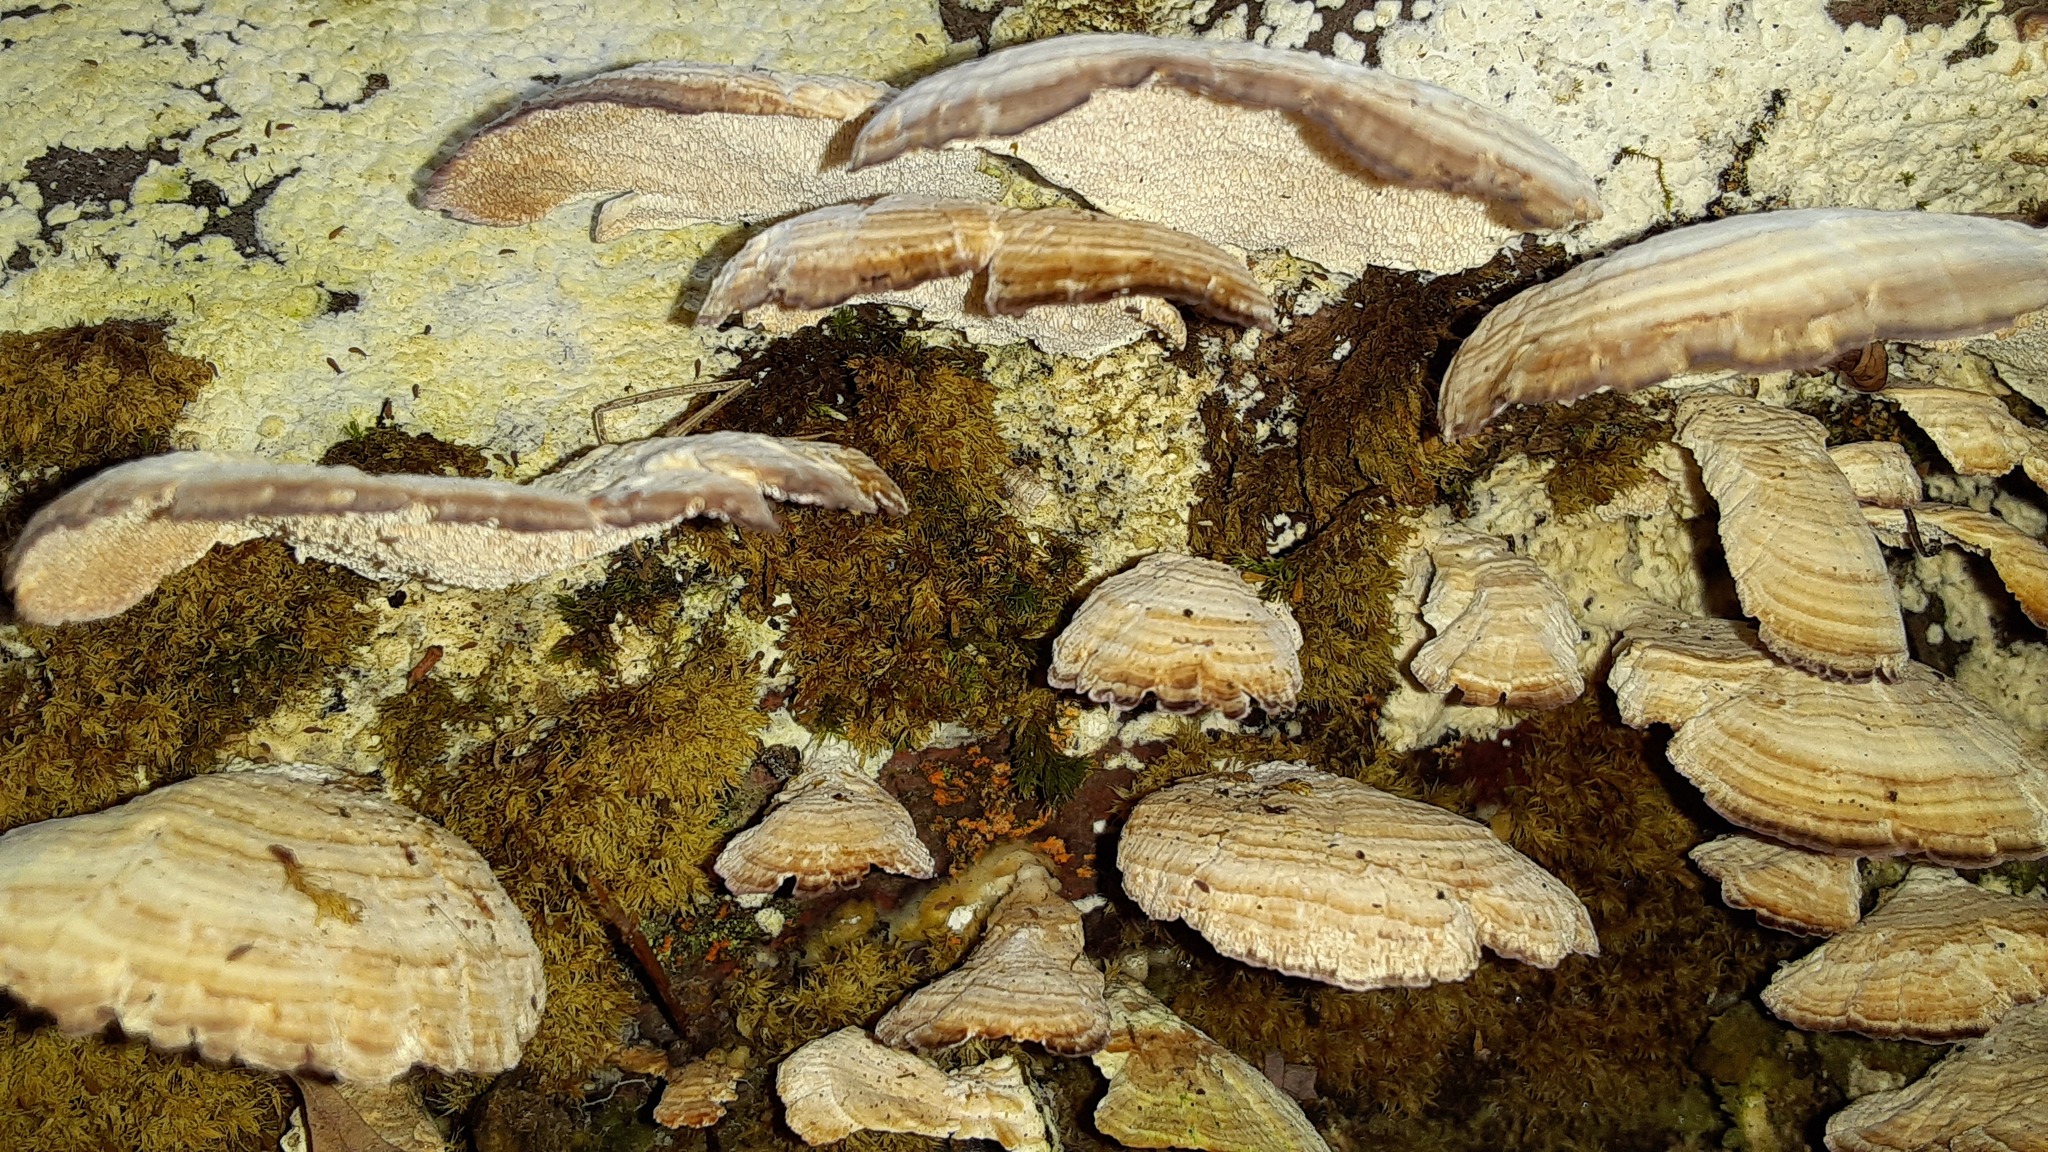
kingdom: Fungi
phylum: Basidiomycota
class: Agaricomycetes
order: Hymenochaetales
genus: Trichaptum
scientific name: Trichaptum biforme
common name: Violet-toothed polypore
